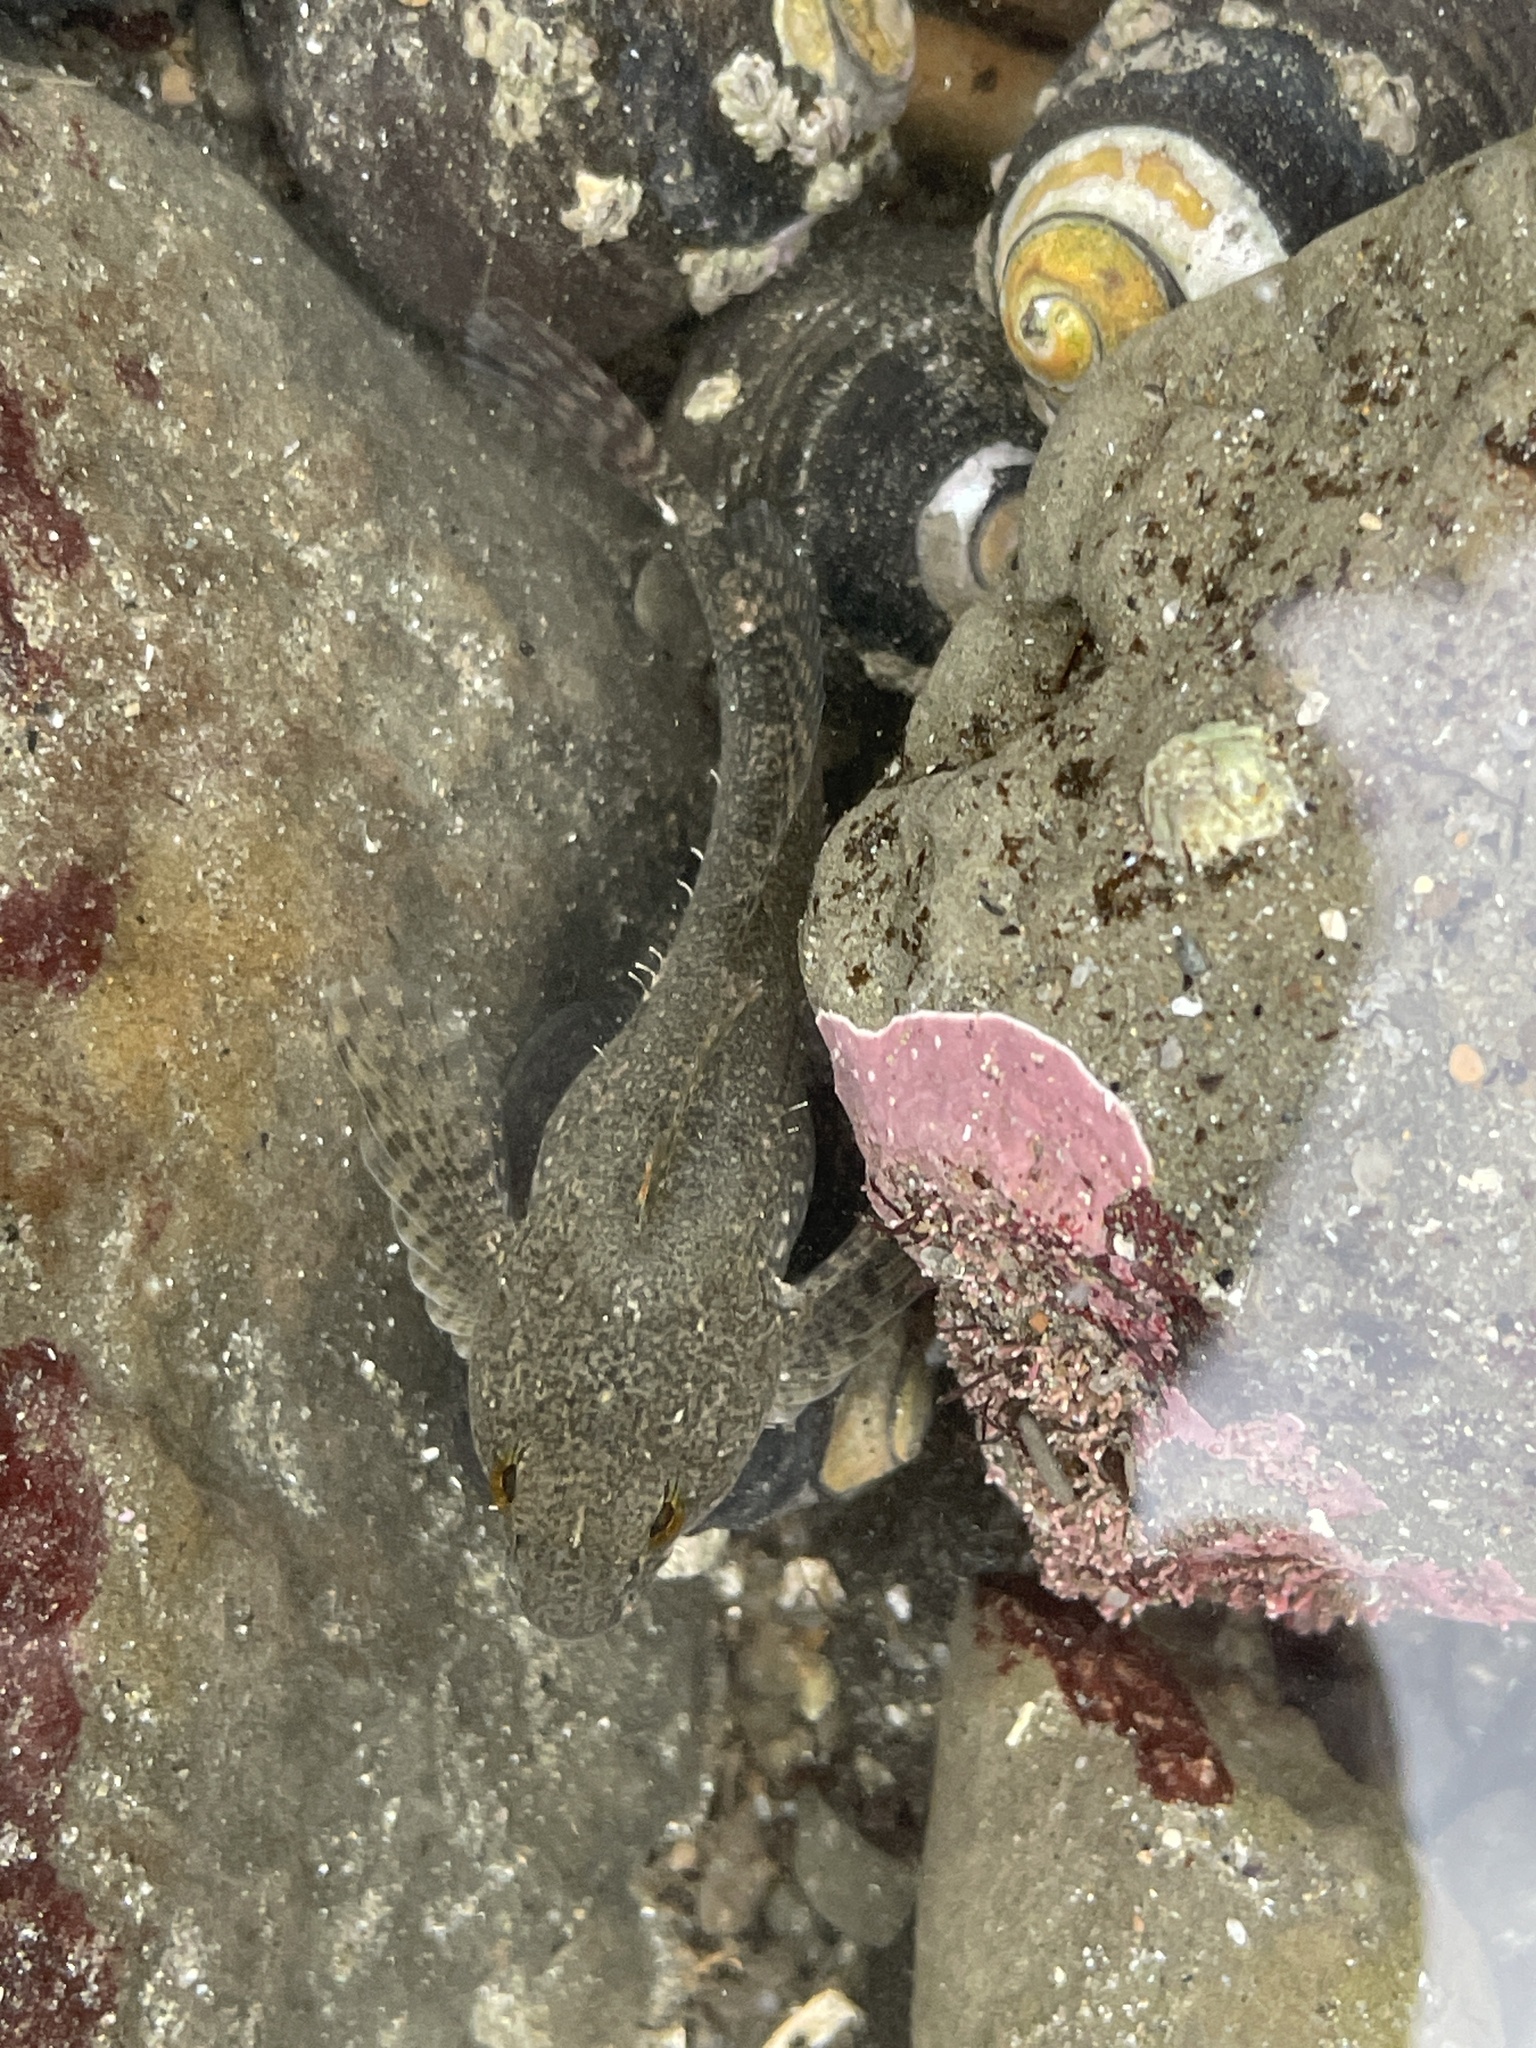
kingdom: Animalia
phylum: Chordata
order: Scorpaeniformes
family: Cottidae
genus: Oligocottus
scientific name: Oligocottus maculosus
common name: Tidepool sculpin
